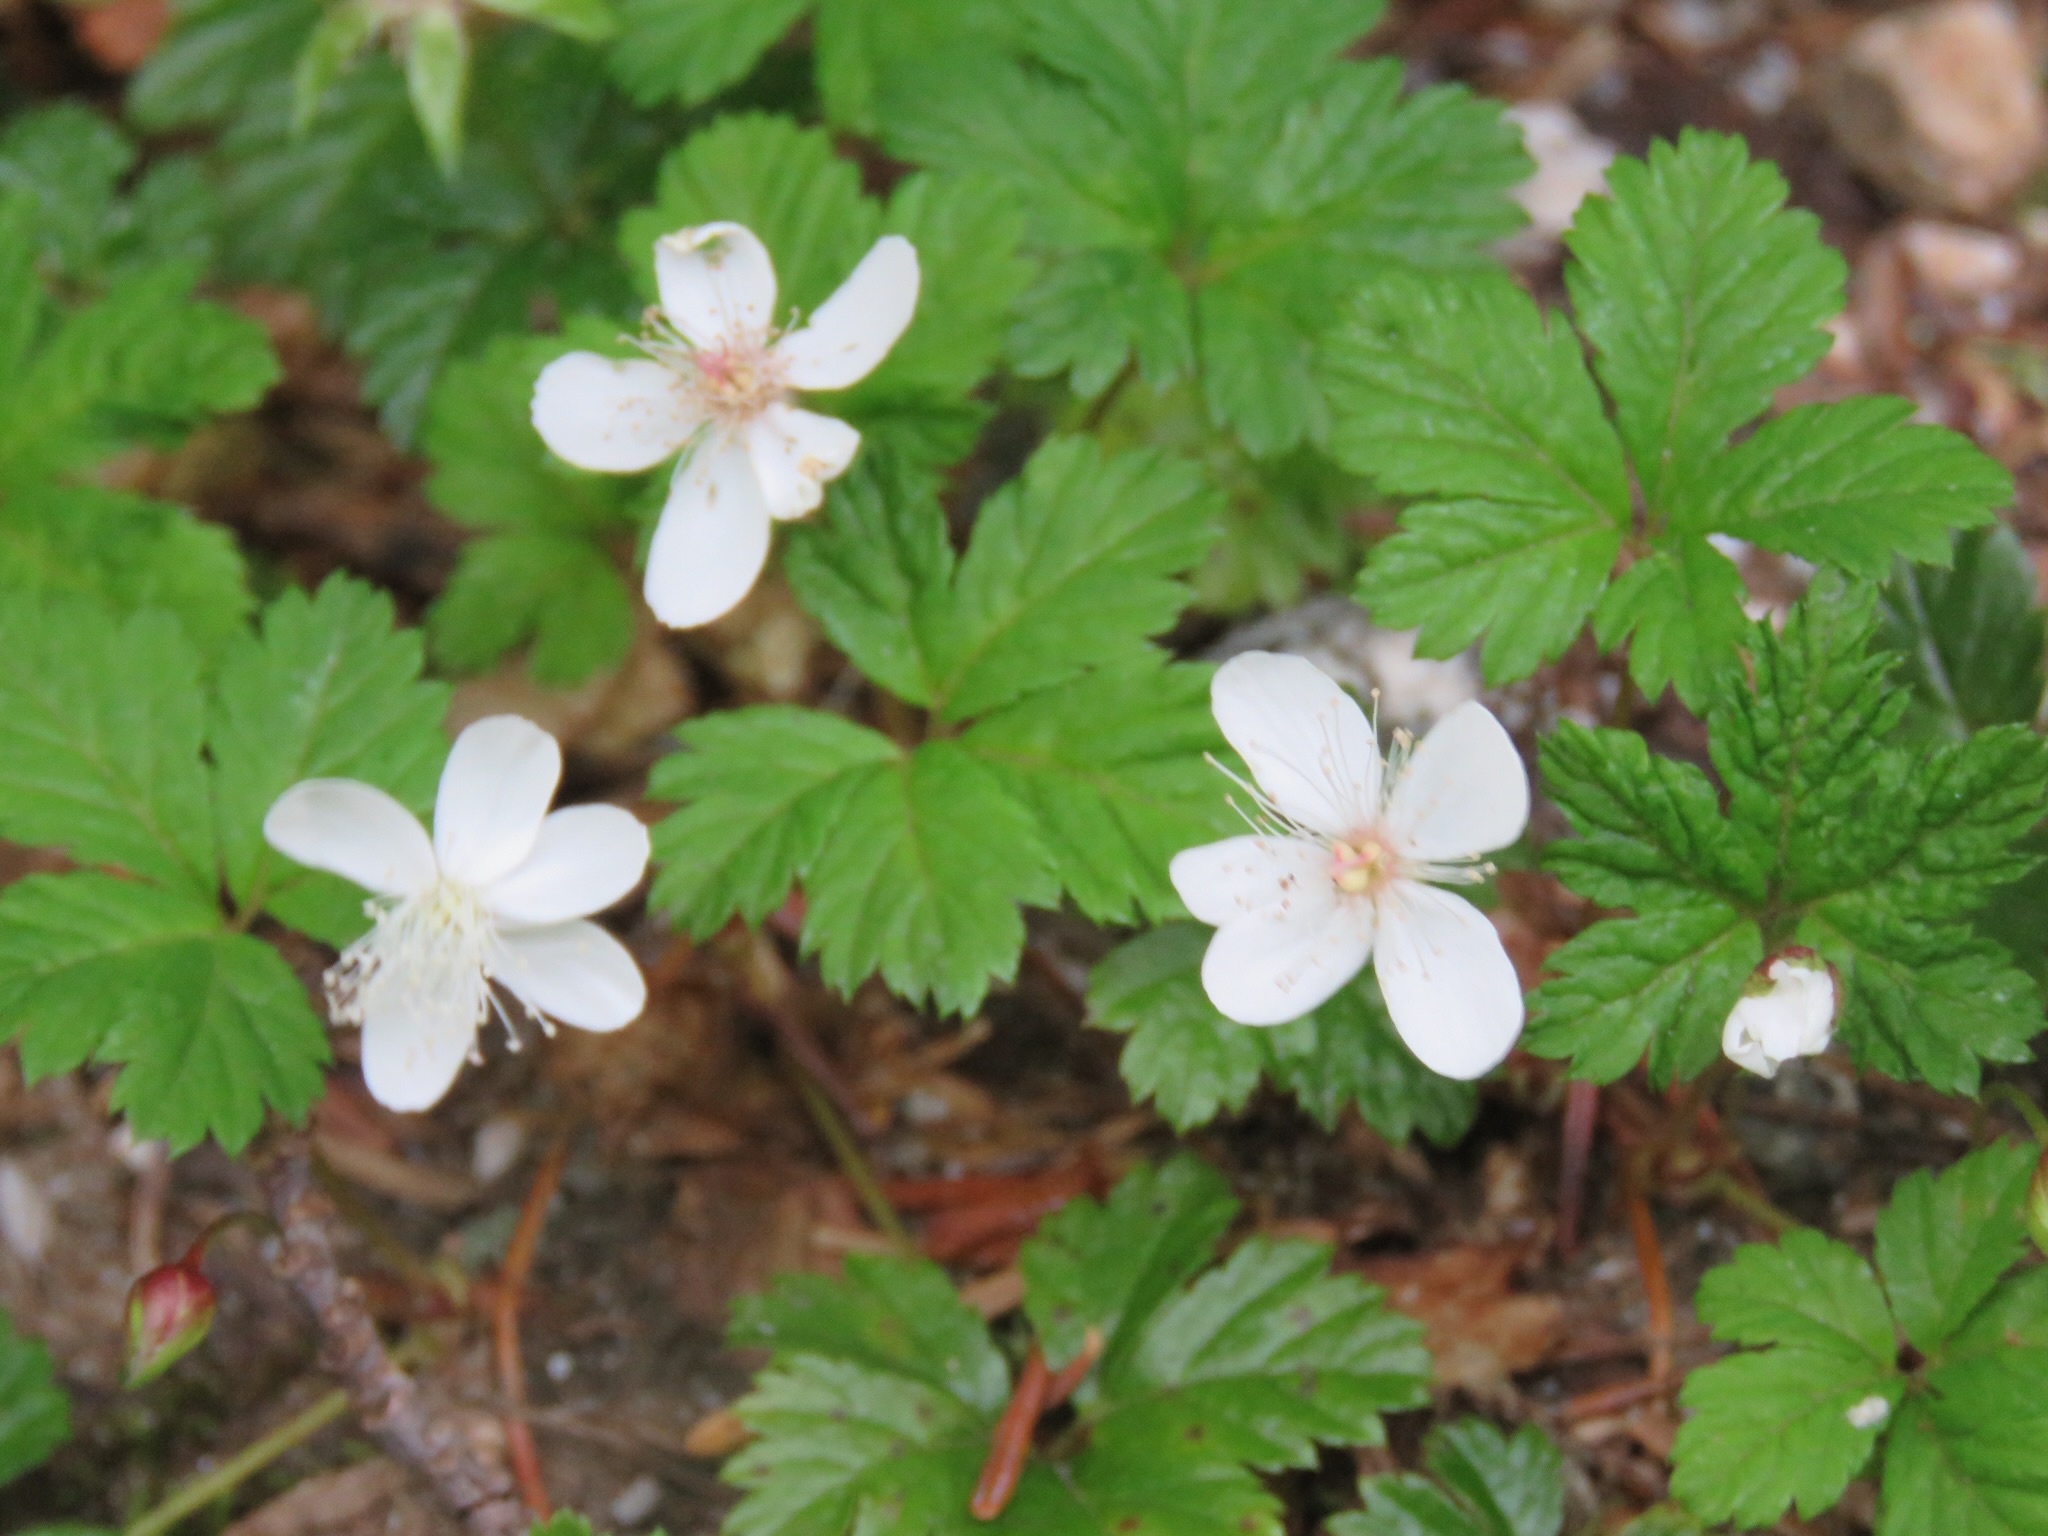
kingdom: Plantae
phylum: Tracheophyta
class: Magnoliopsida
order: Rosales
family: Rosaceae
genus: Rubus
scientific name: Rubus pedatus
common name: Creeping raspberry
